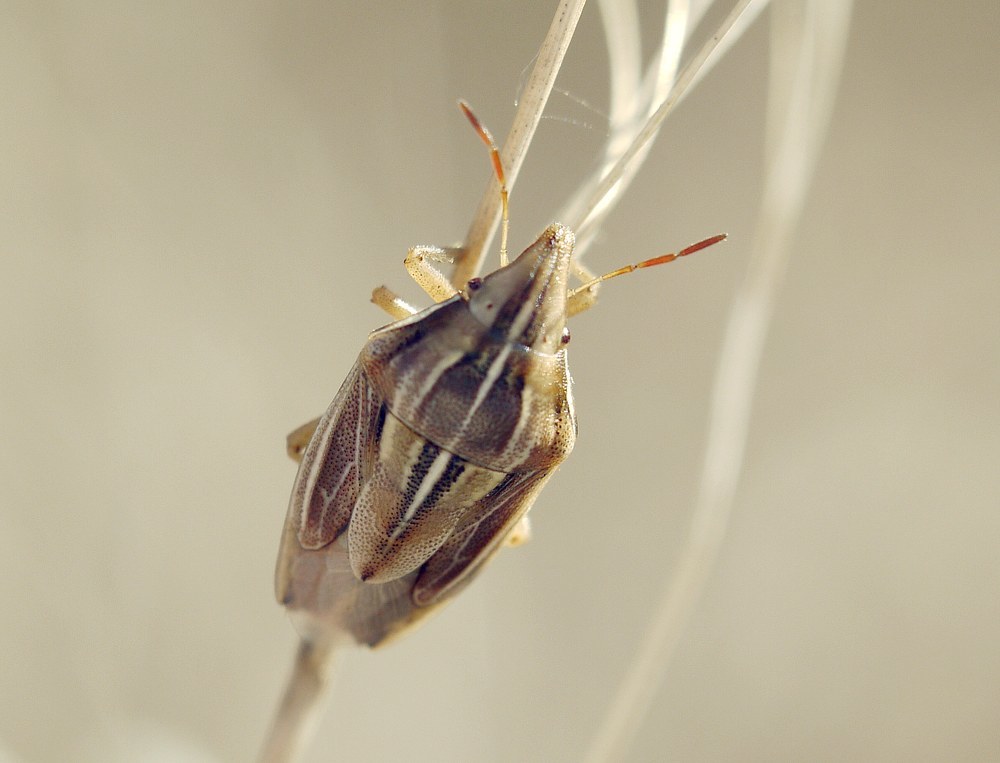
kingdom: Animalia
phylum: Arthropoda
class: Insecta
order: Hemiptera
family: Pentatomidae
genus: Aelia
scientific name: Aelia rostrata
